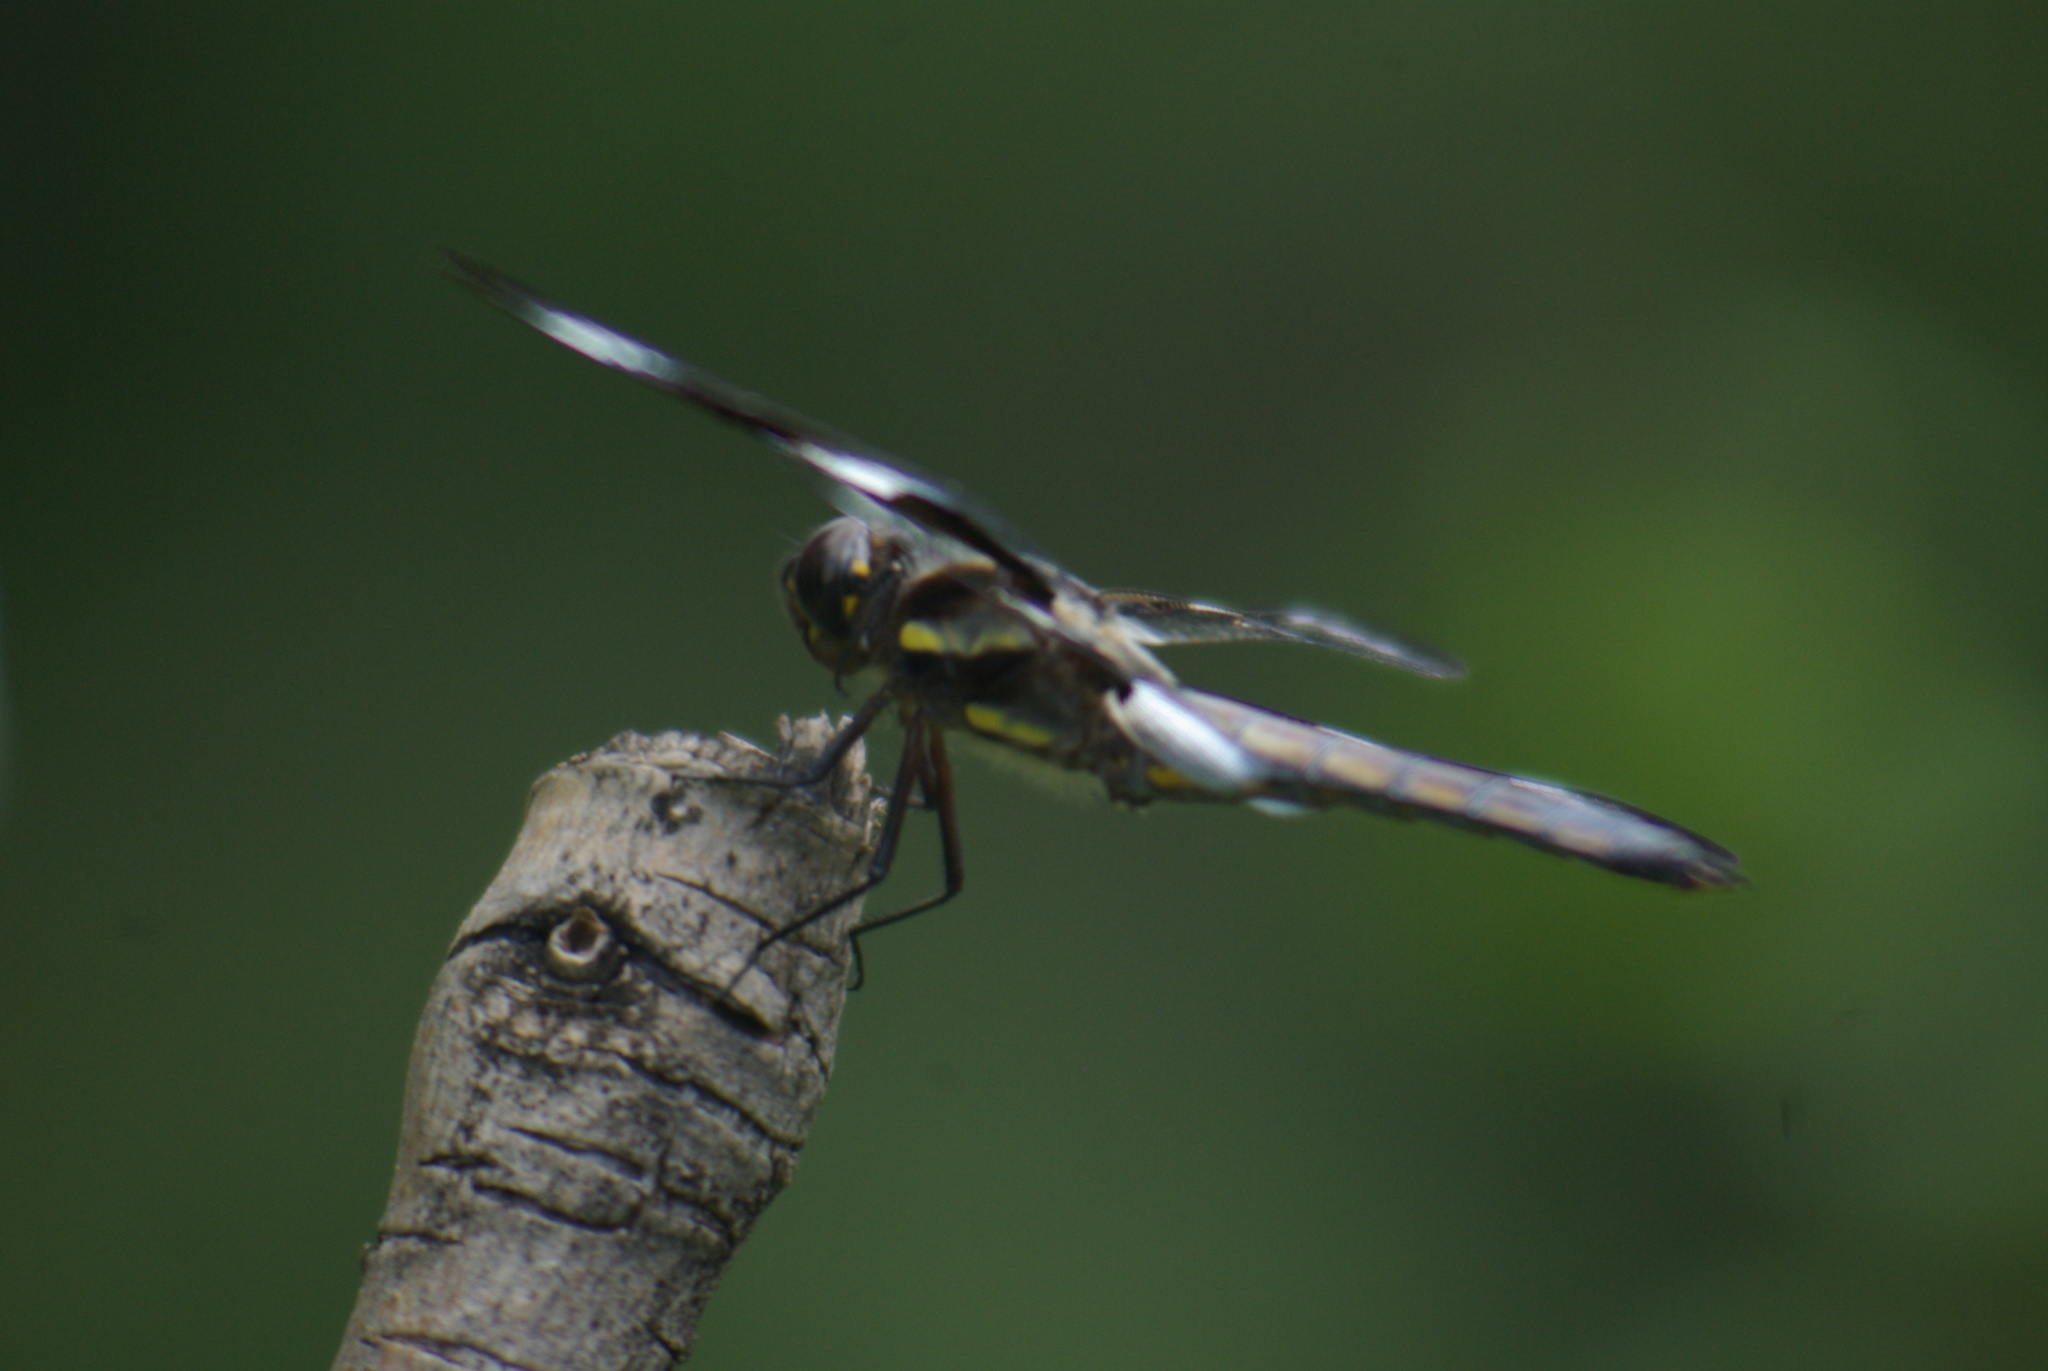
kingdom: Animalia
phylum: Arthropoda
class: Insecta
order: Odonata
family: Libellulidae
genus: Libellula
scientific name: Libellula pulchella
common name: Twelve-spotted skimmer
